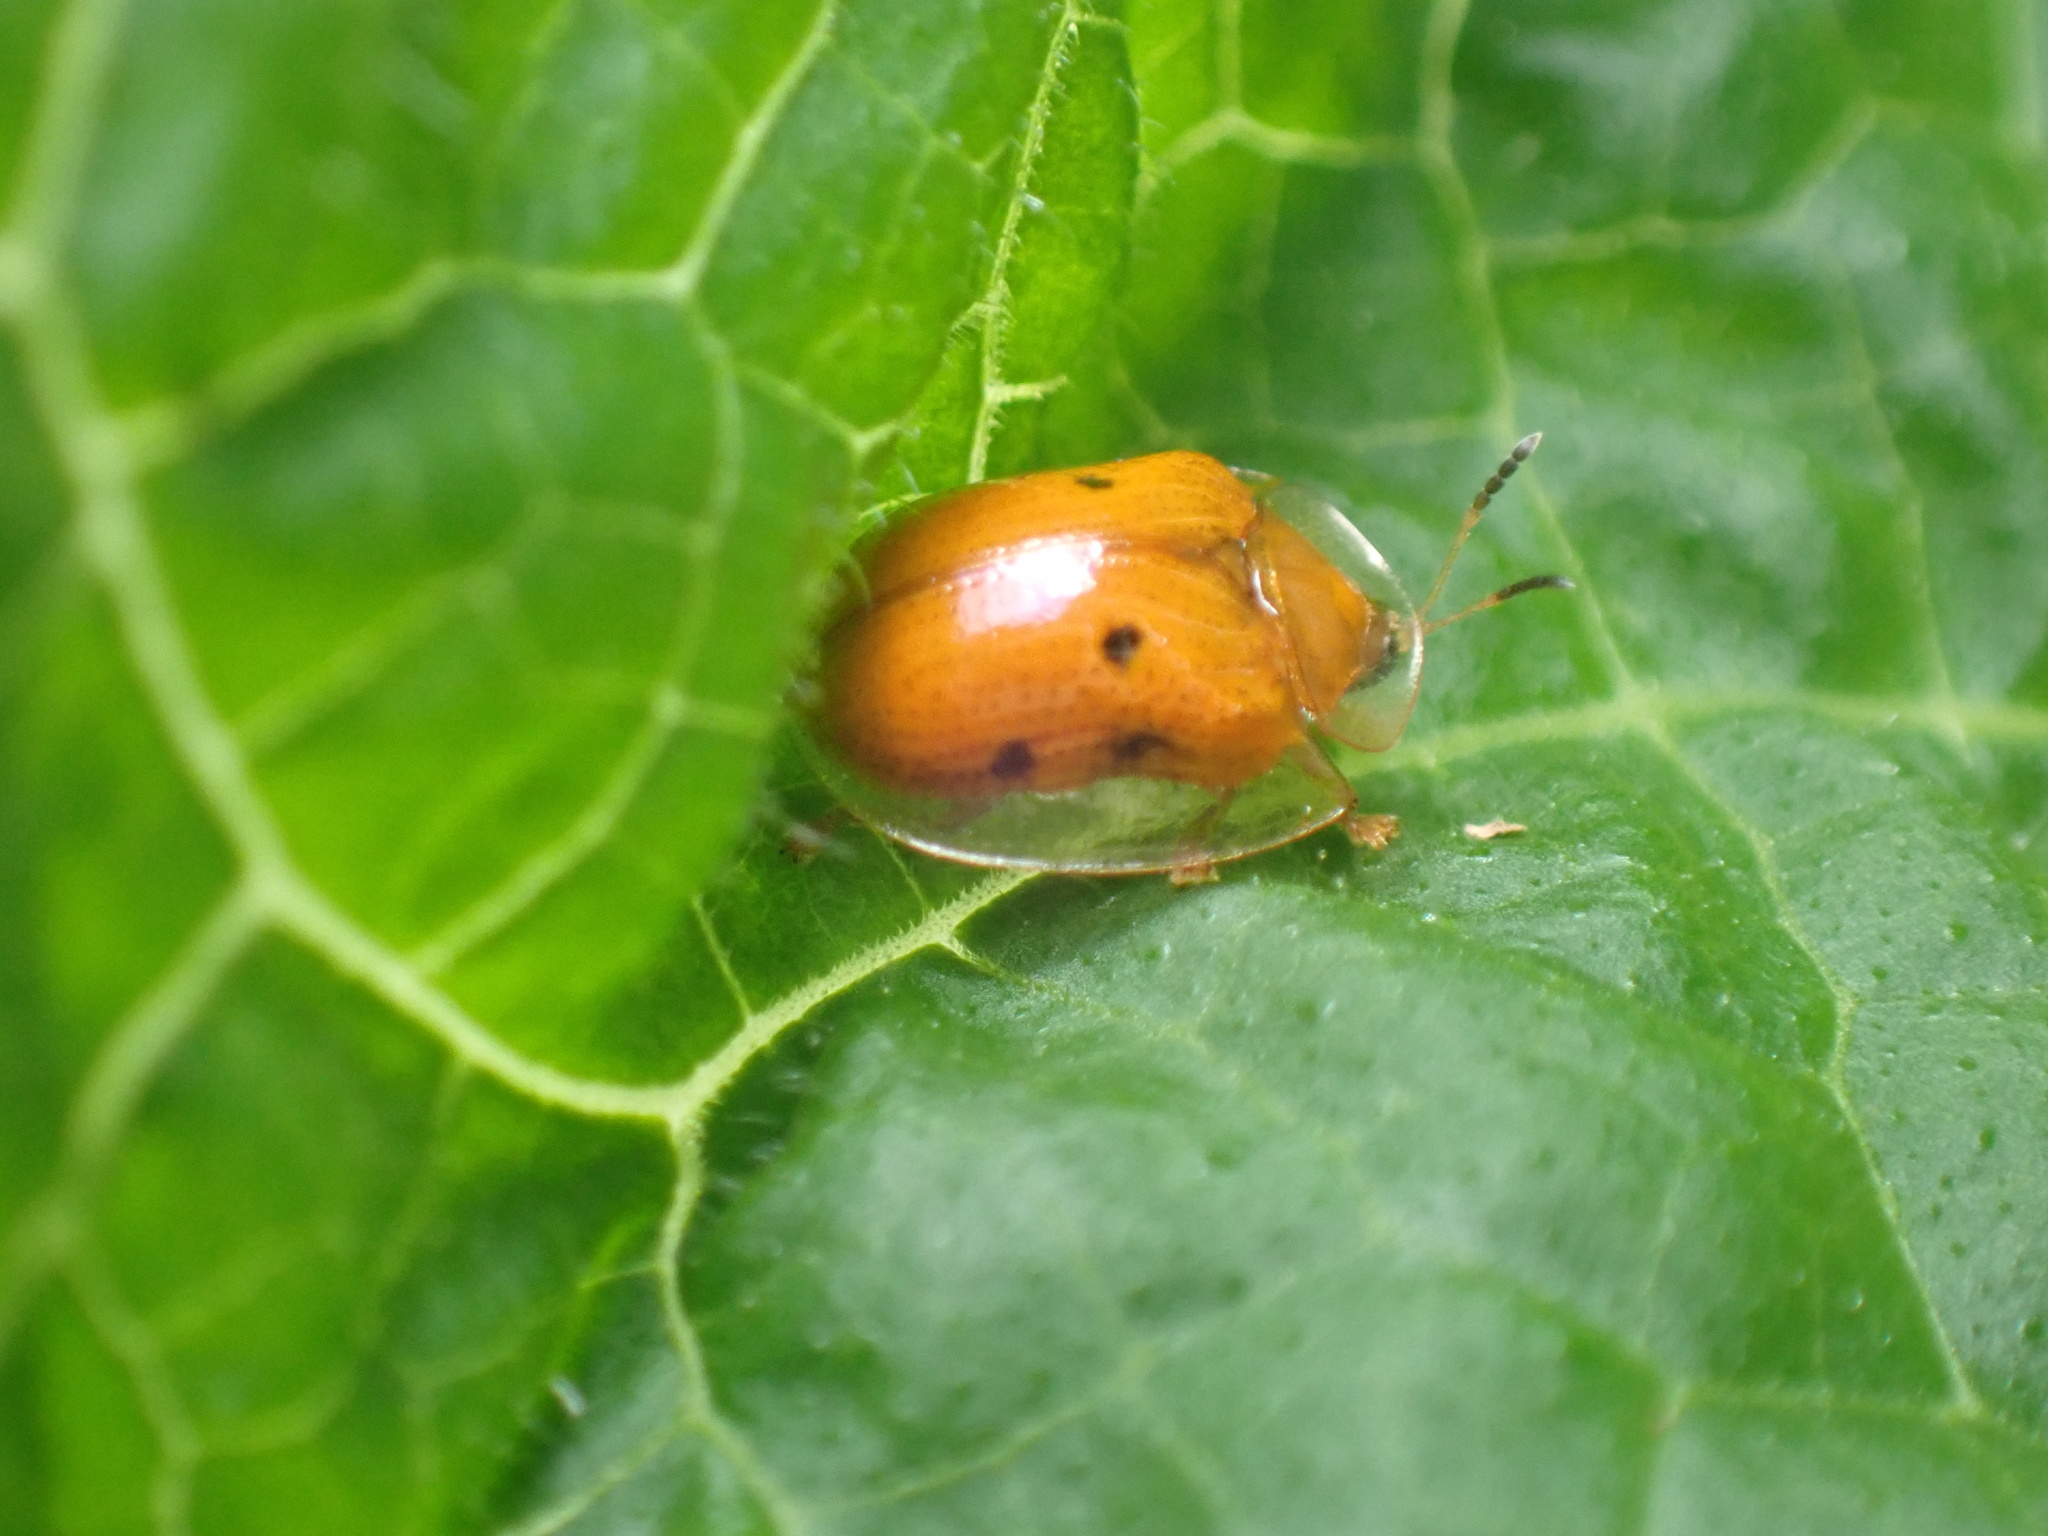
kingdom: Animalia
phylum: Arthropoda
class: Insecta
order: Coleoptera
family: Chrysomelidae
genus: Charidotella
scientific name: Charidotella sexpunctata
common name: Golden tortoise beetle
